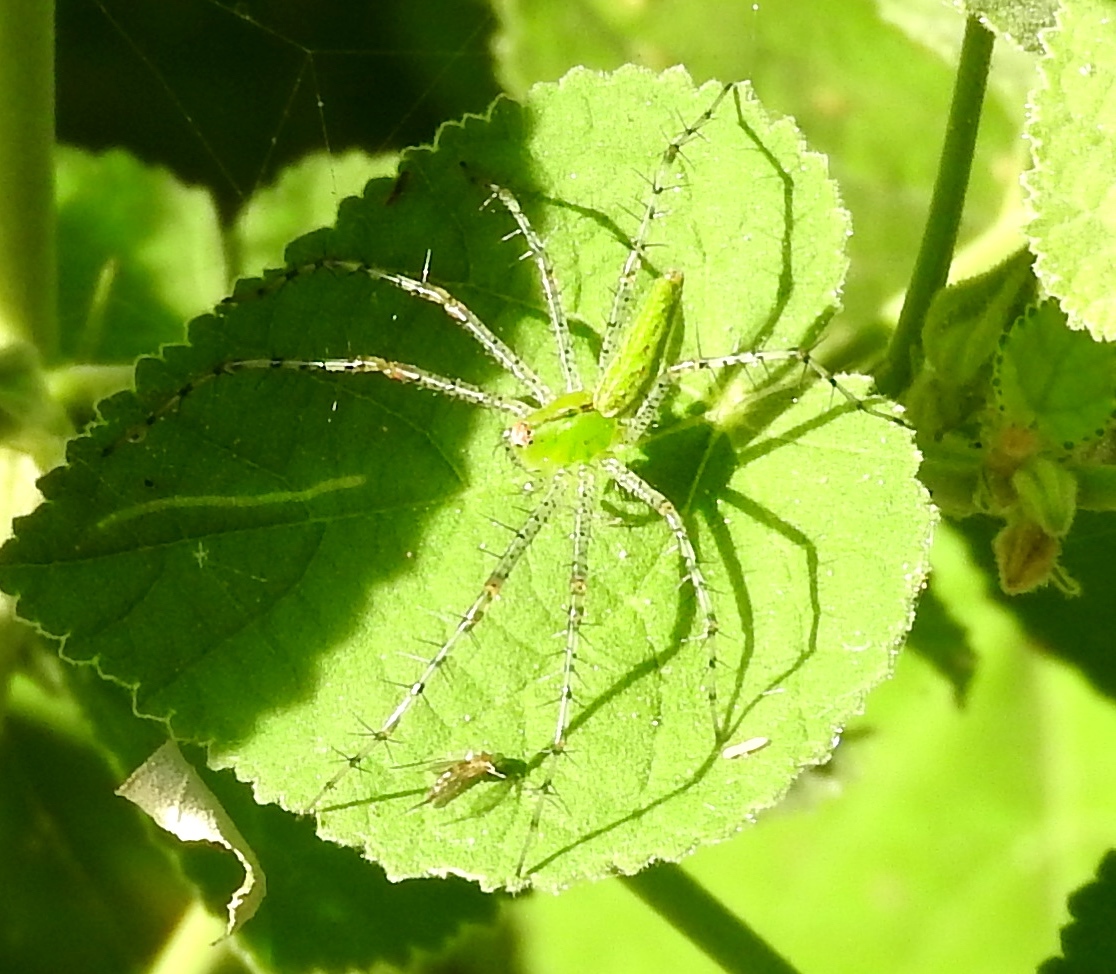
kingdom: Animalia
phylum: Arthropoda
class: Arachnida
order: Araneae
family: Oxyopidae
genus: Peucetia
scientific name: Peucetia viridans
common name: Lynx spiders
